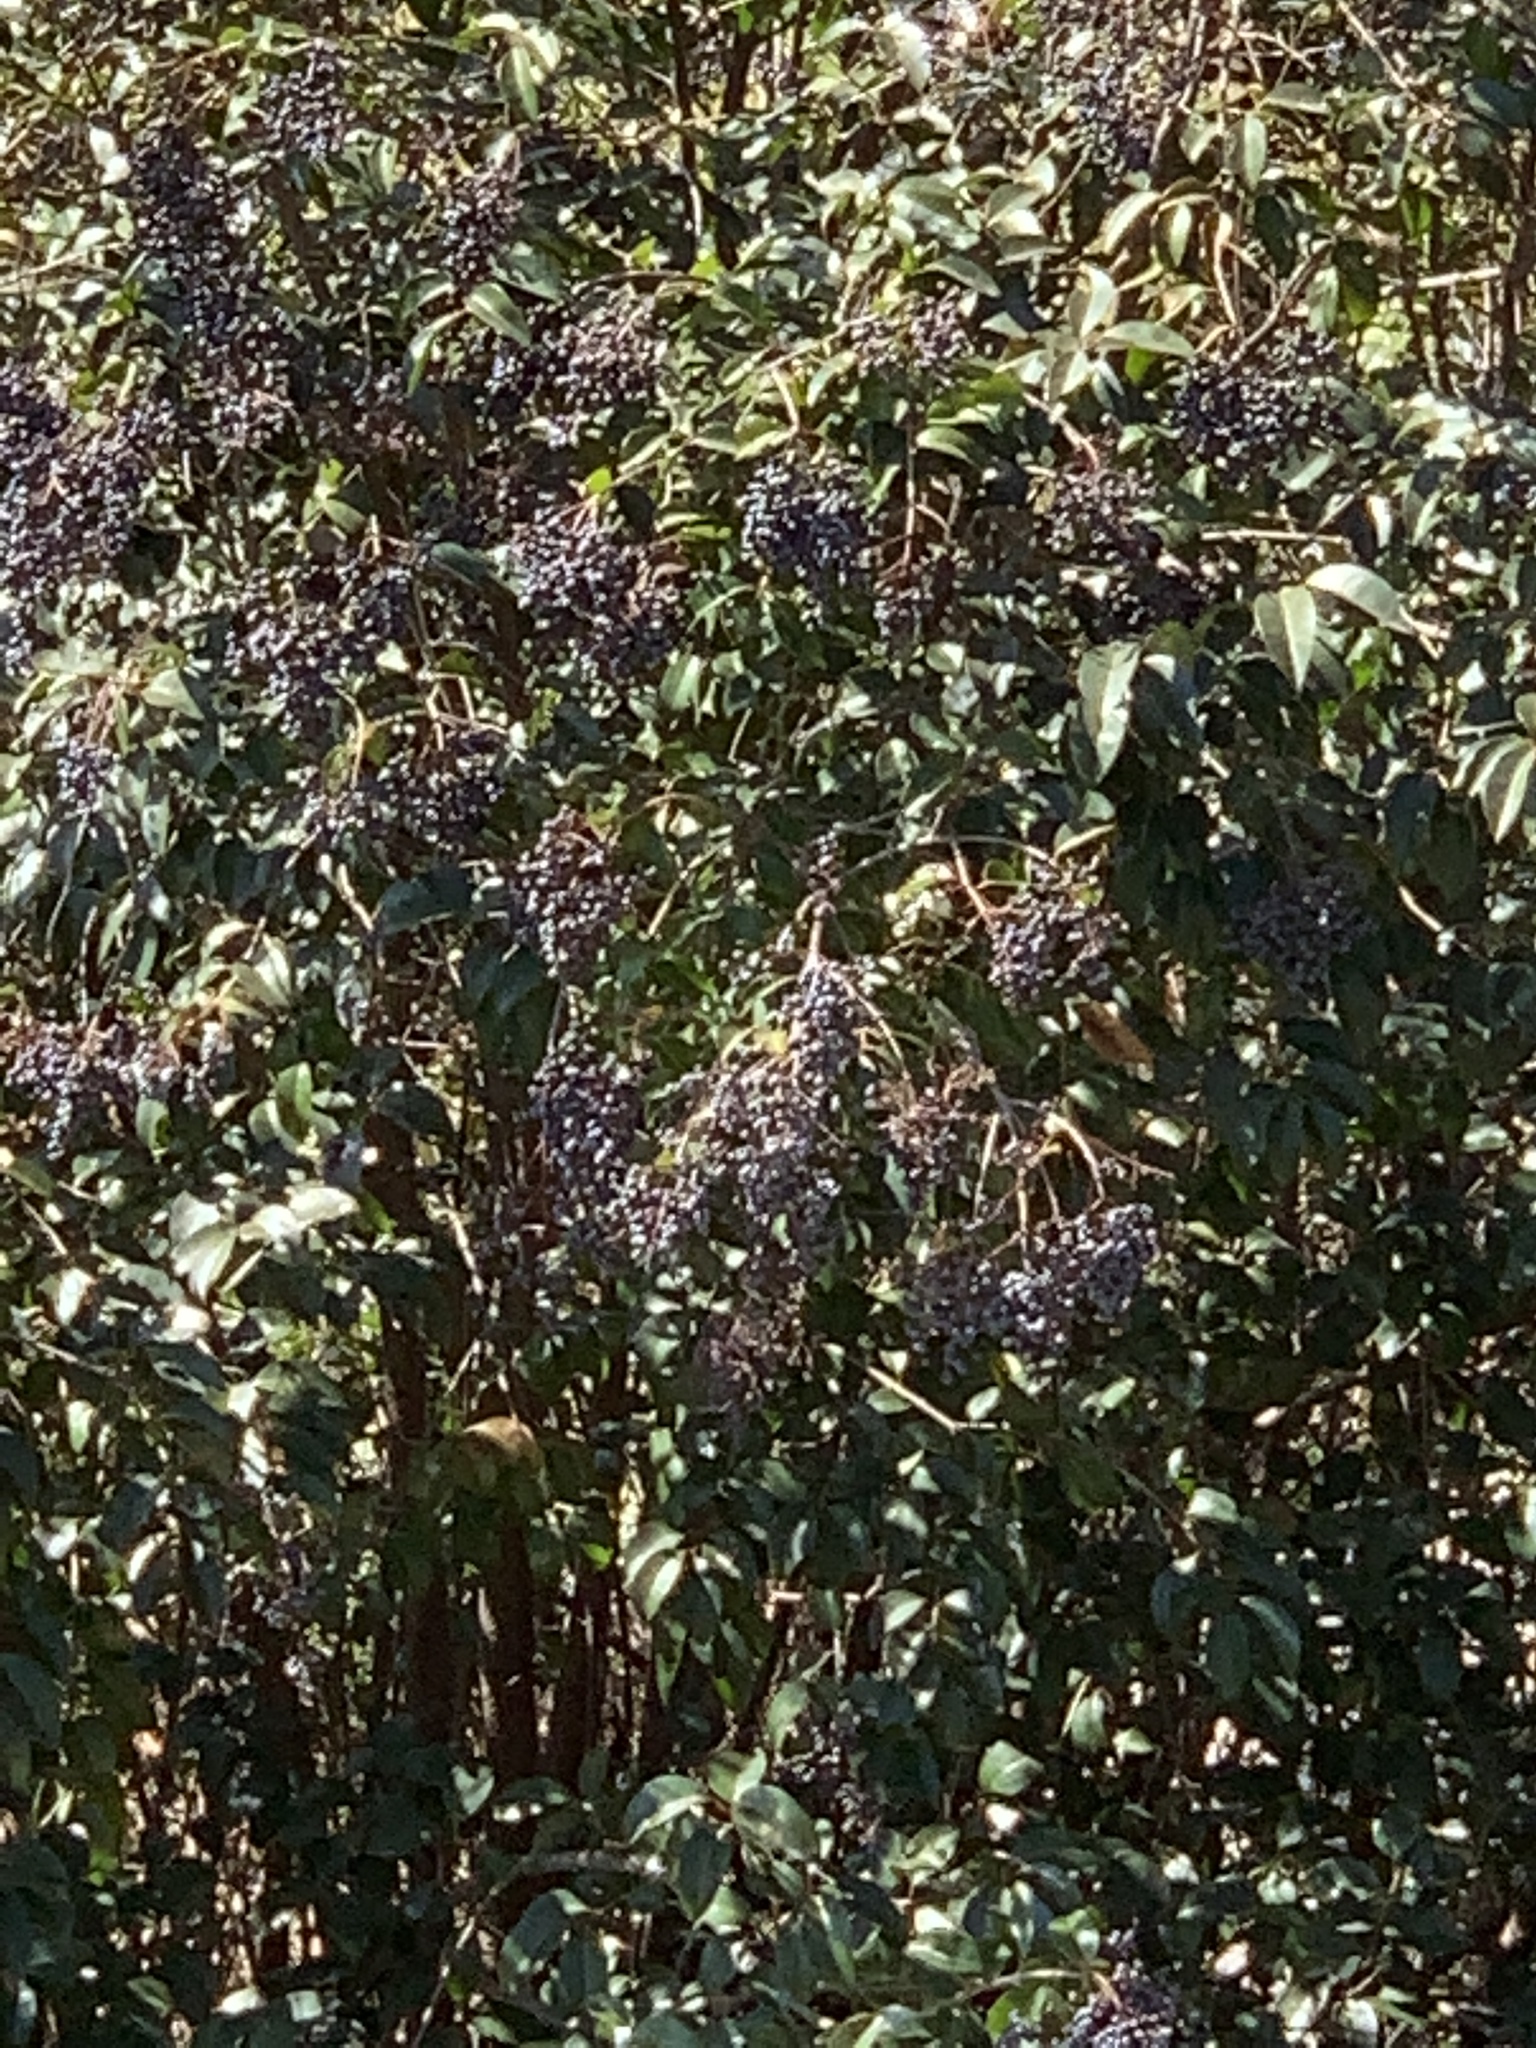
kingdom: Plantae
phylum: Tracheophyta
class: Magnoliopsida
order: Lamiales
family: Oleaceae
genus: Ligustrum
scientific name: Ligustrum lucidum
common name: Glossy privet
